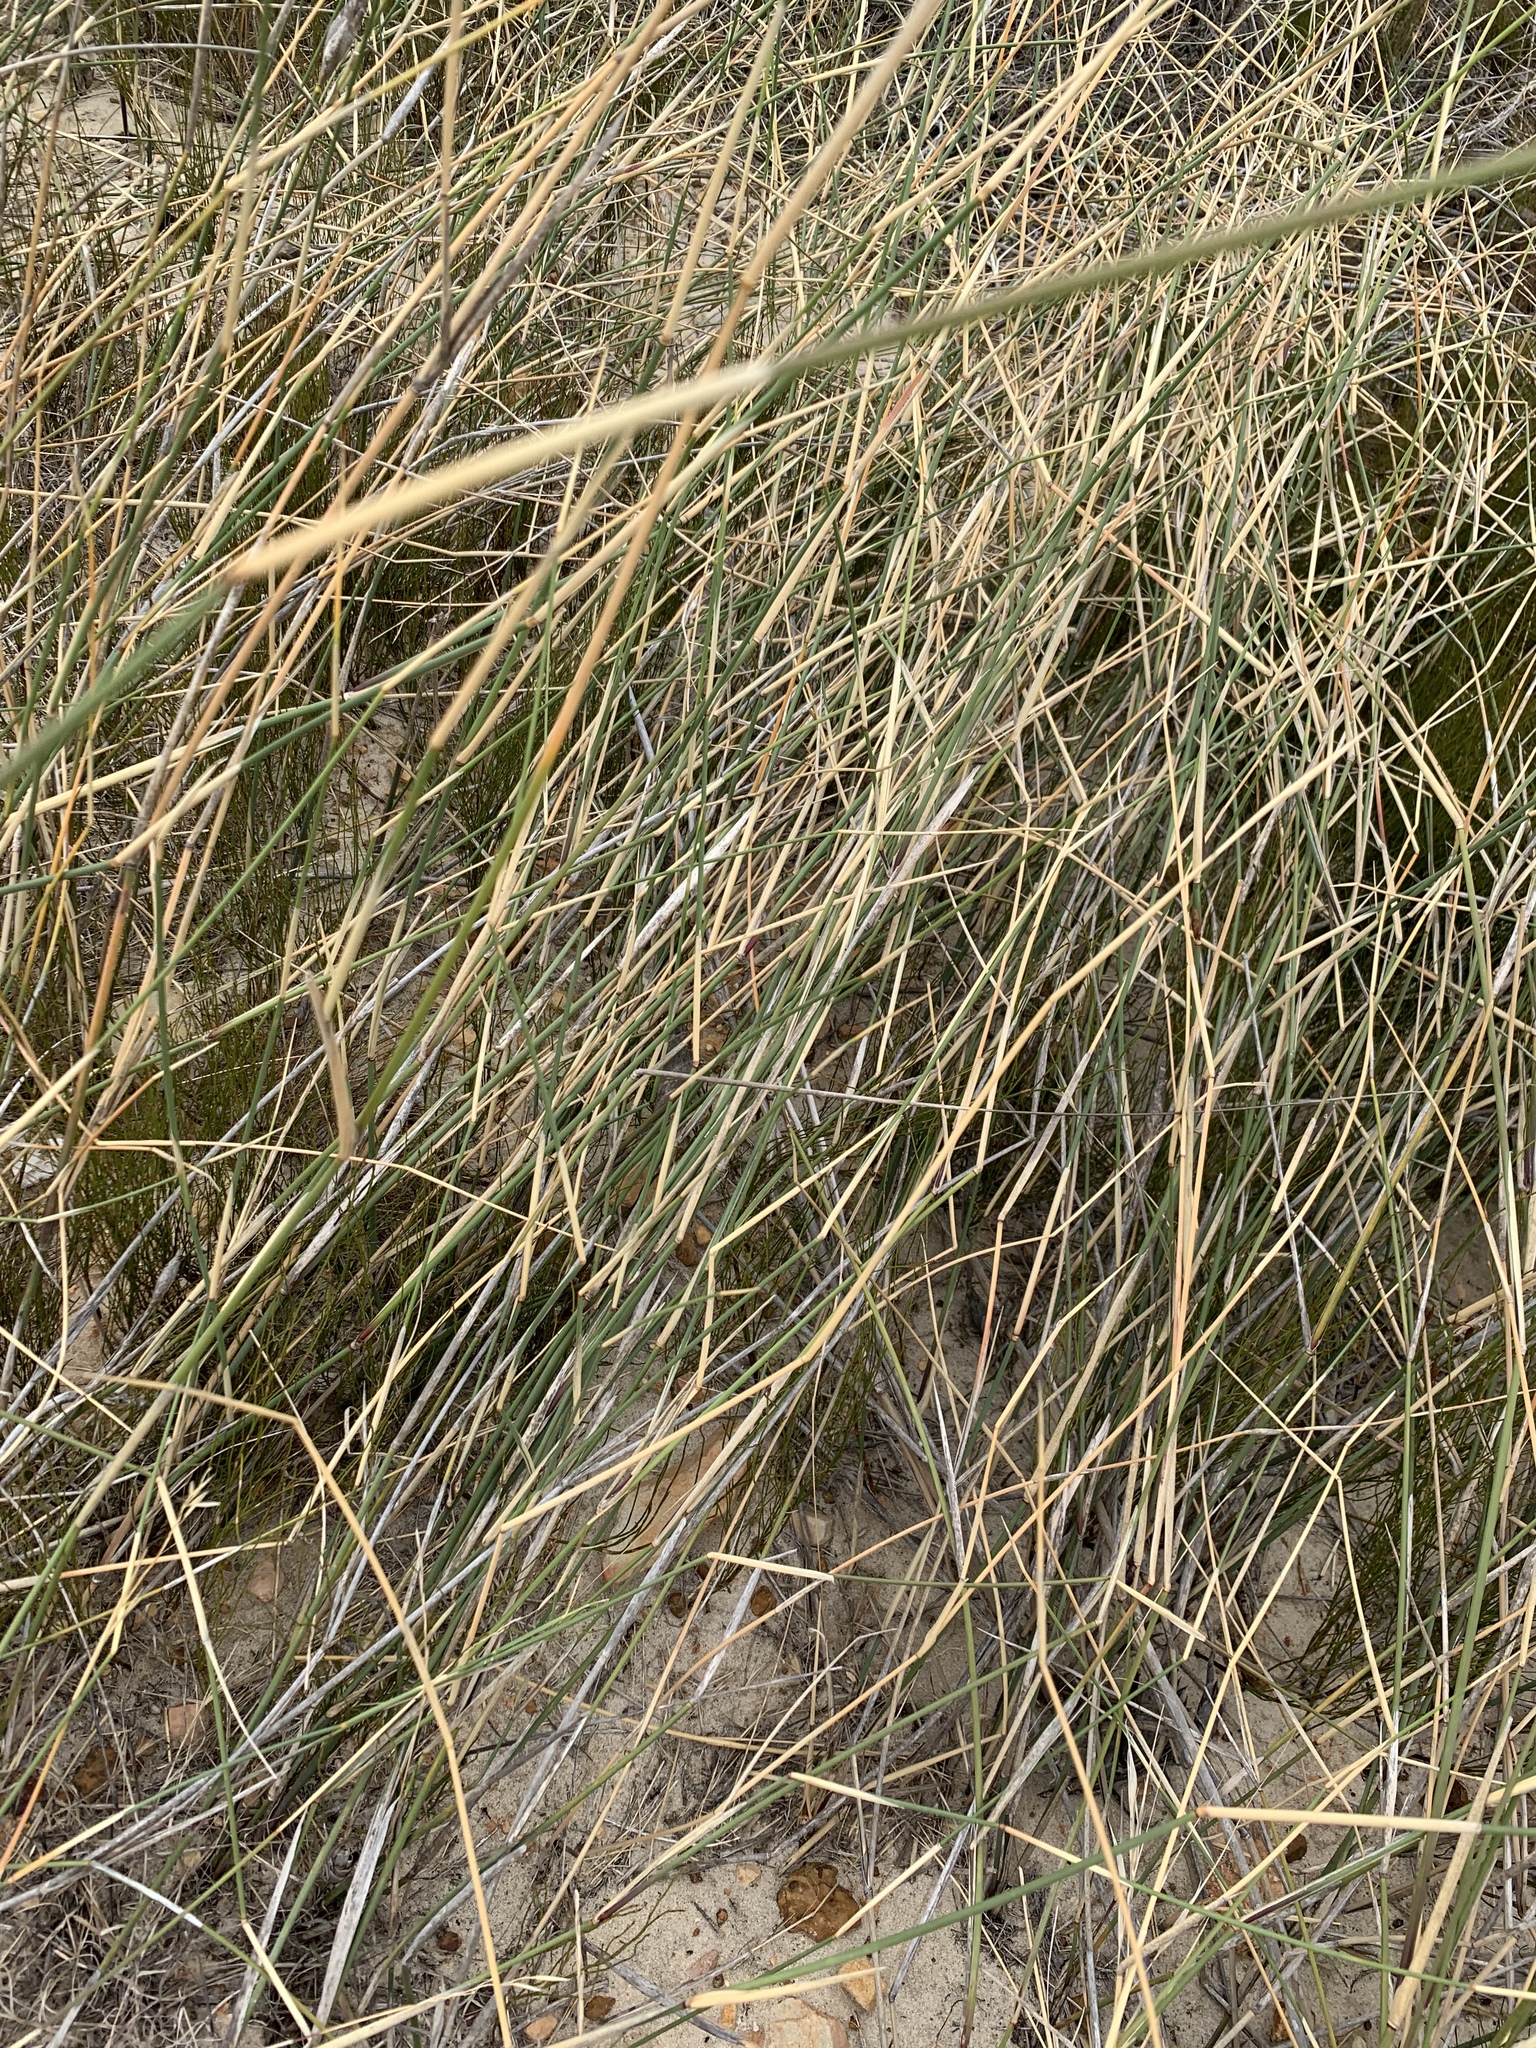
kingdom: Plantae
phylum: Tracheophyta
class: Liliopsida
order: Poales
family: Poaceae
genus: Ehrharta
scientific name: Ehrharta villosa
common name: Pyp grass
